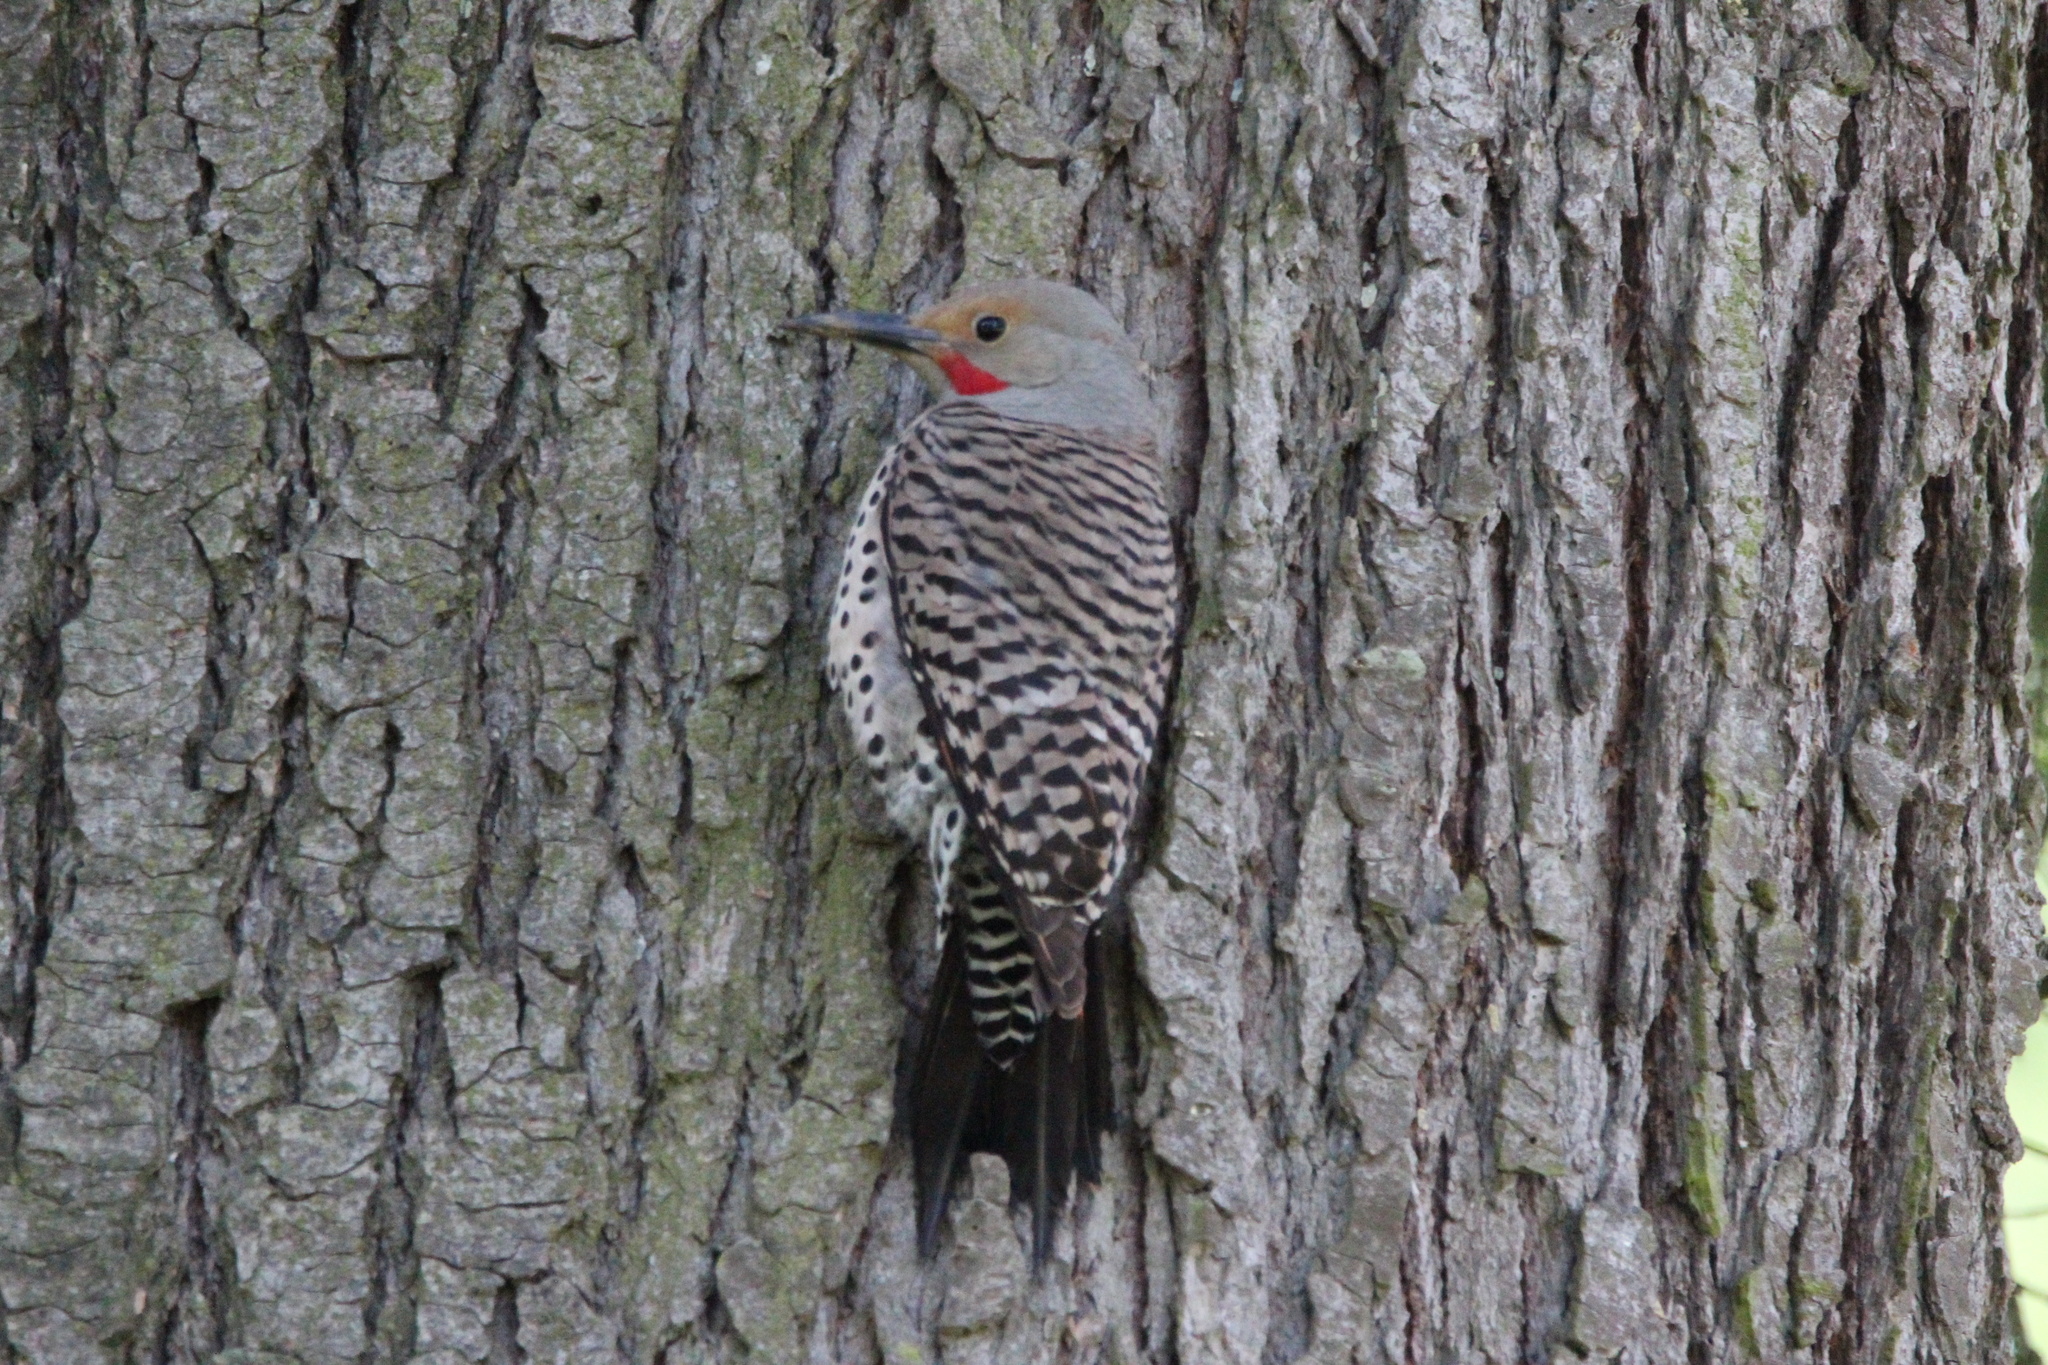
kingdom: Animalia
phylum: Chordata
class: Aves
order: Piciformes
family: Picidae
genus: Colaptes
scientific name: Colaptes auratus
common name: Northern flicker
